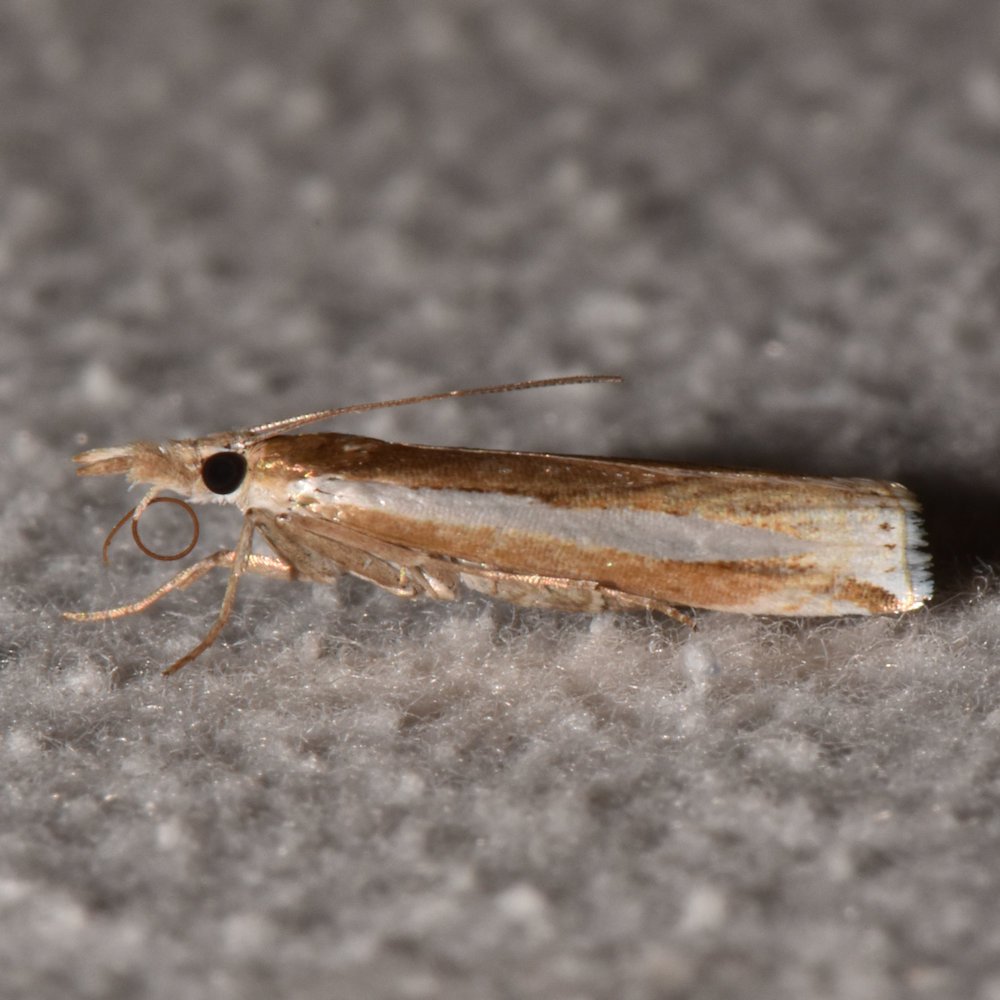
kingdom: Animalia
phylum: Arthropoda
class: Insecta
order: Lepidoptera
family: Crambidae
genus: Crambus
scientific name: Crambus praefectellus
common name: Common grass-veneer
